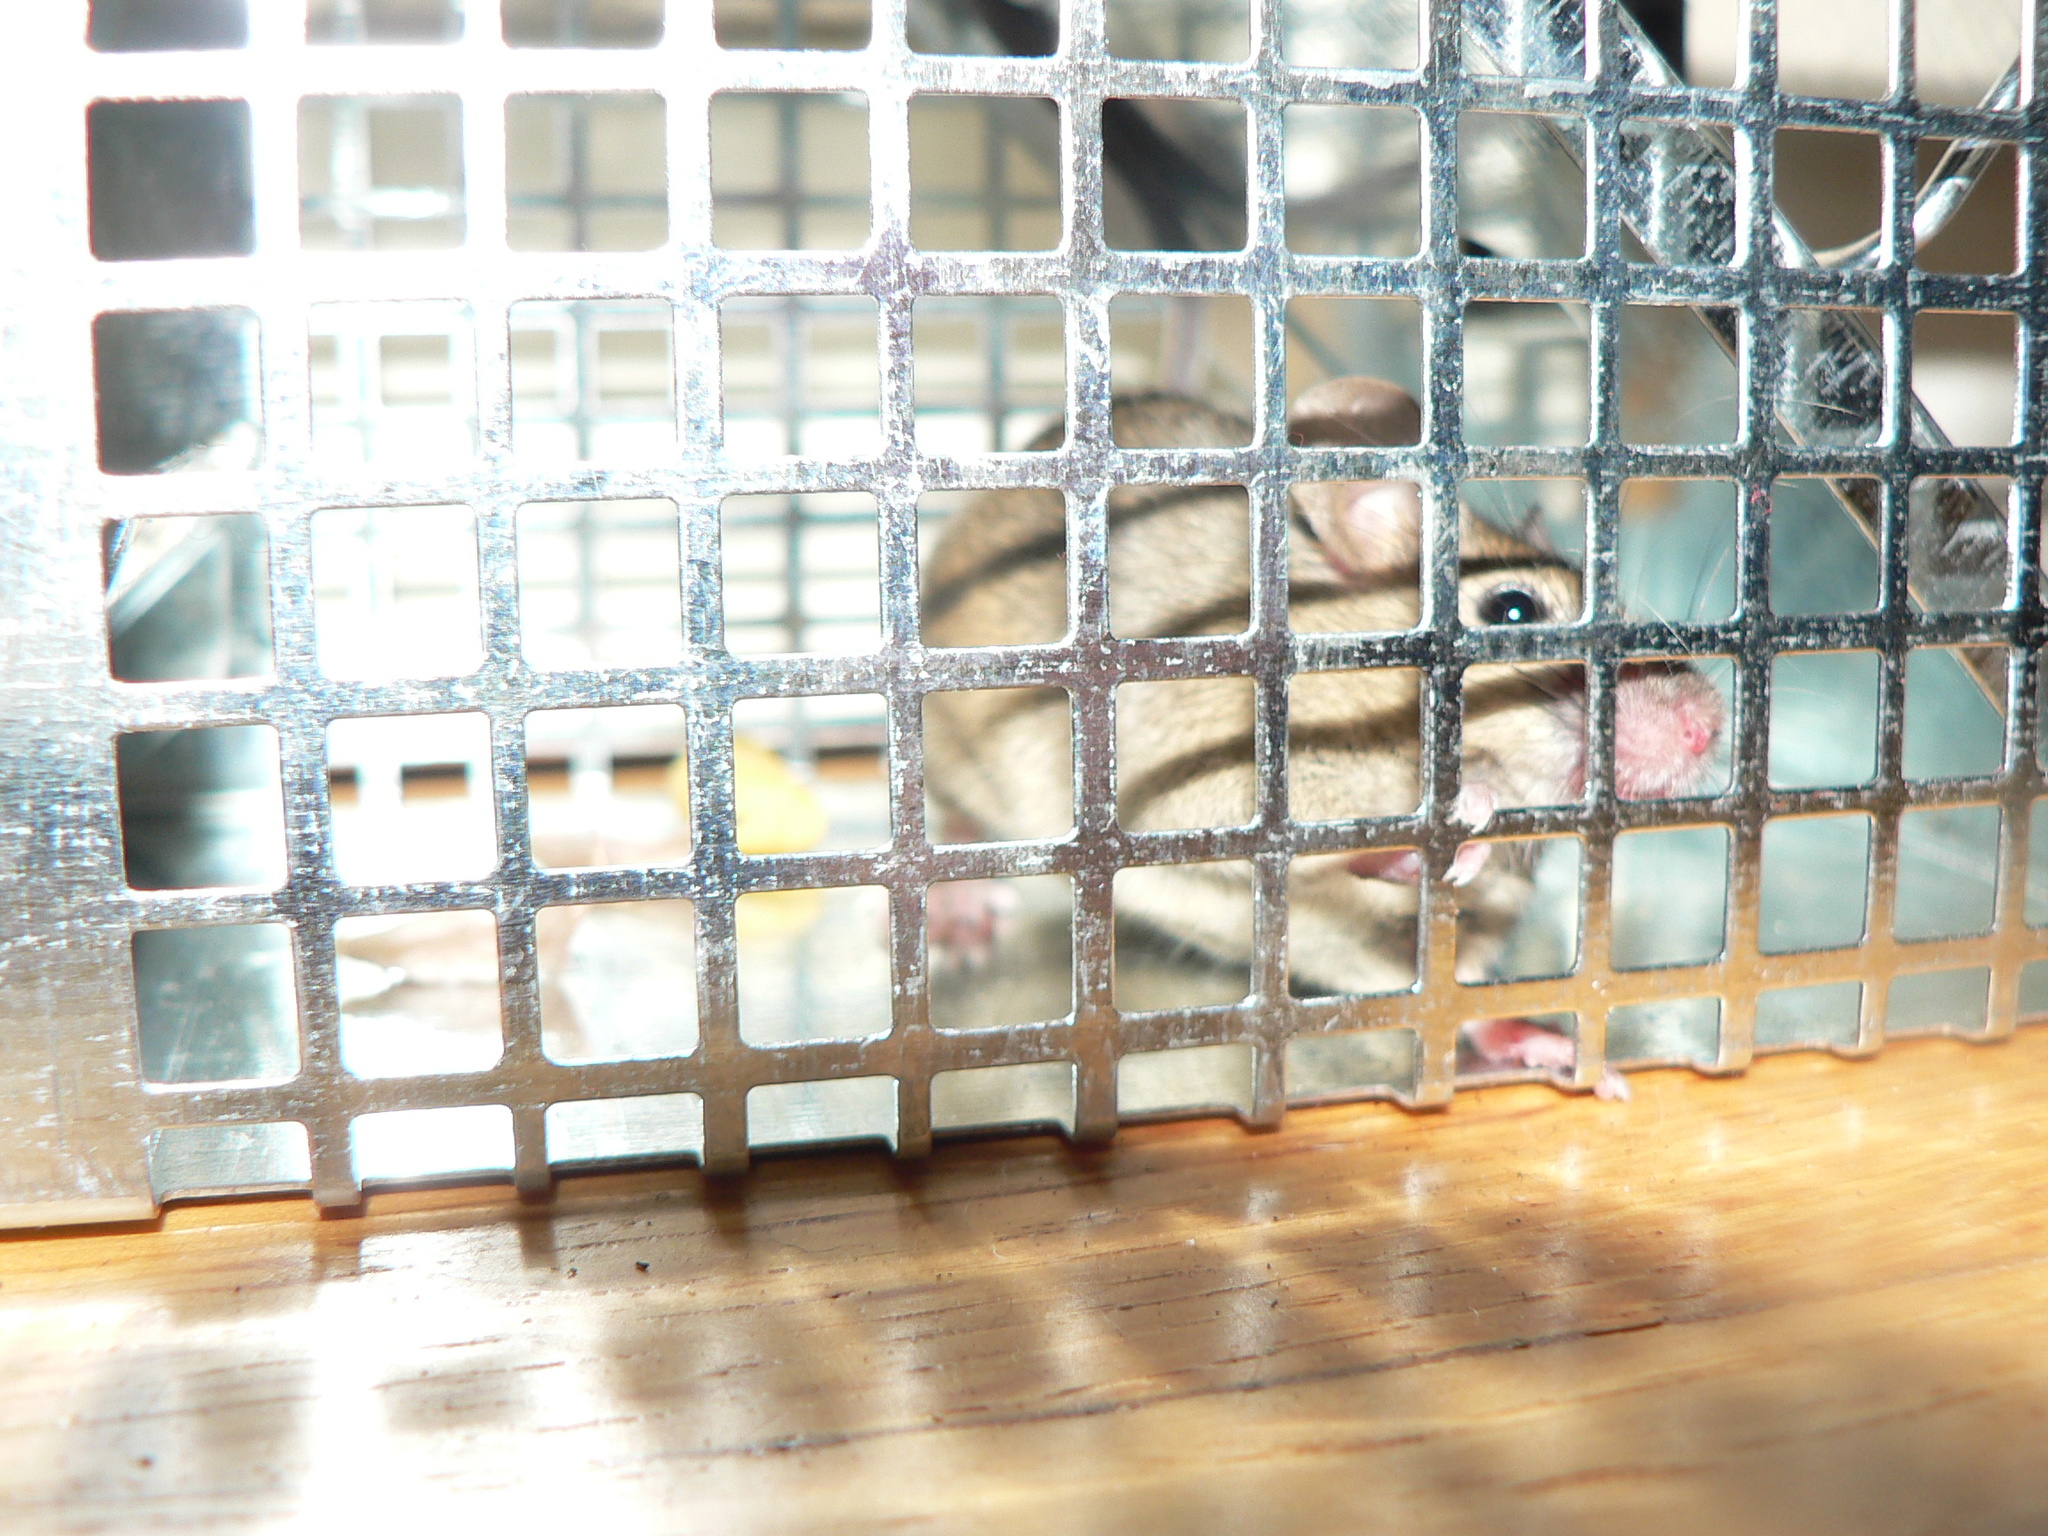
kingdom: Animalia
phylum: Chordata
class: Mammalia
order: Rodentia
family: Muridae
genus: Mus
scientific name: Mus musculus
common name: House mouse
